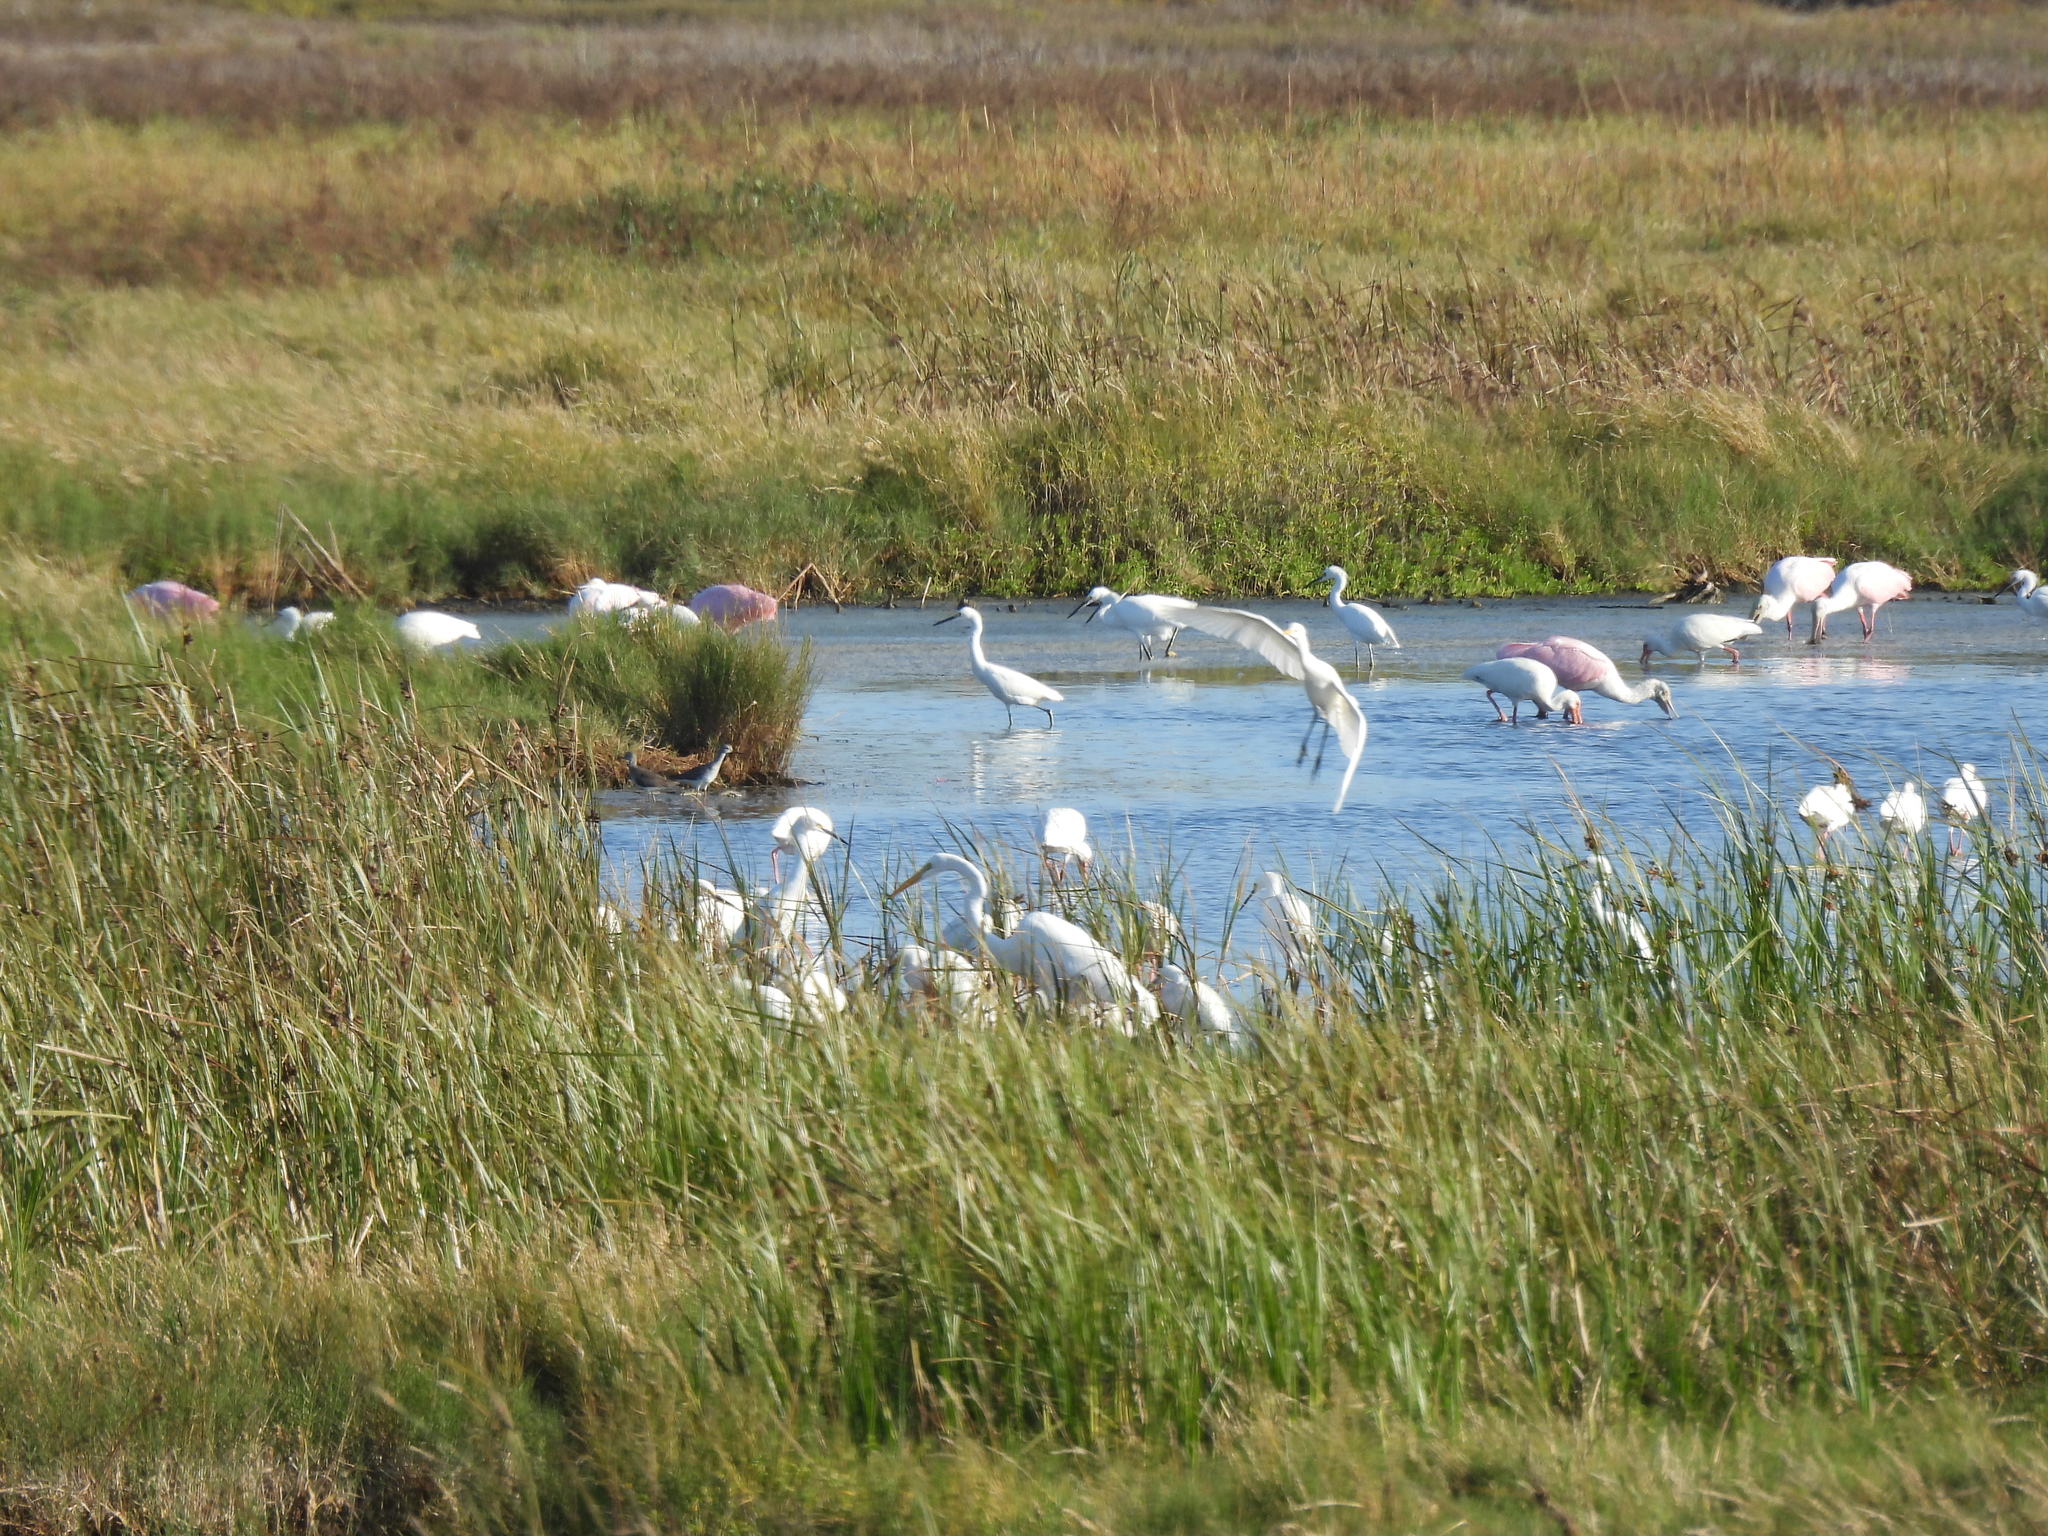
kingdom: Animalia
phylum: Chordata
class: Aves
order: Pelecaniformes
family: Ardeidae
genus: Egretta
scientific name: Egretta thula
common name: Snowy egret
